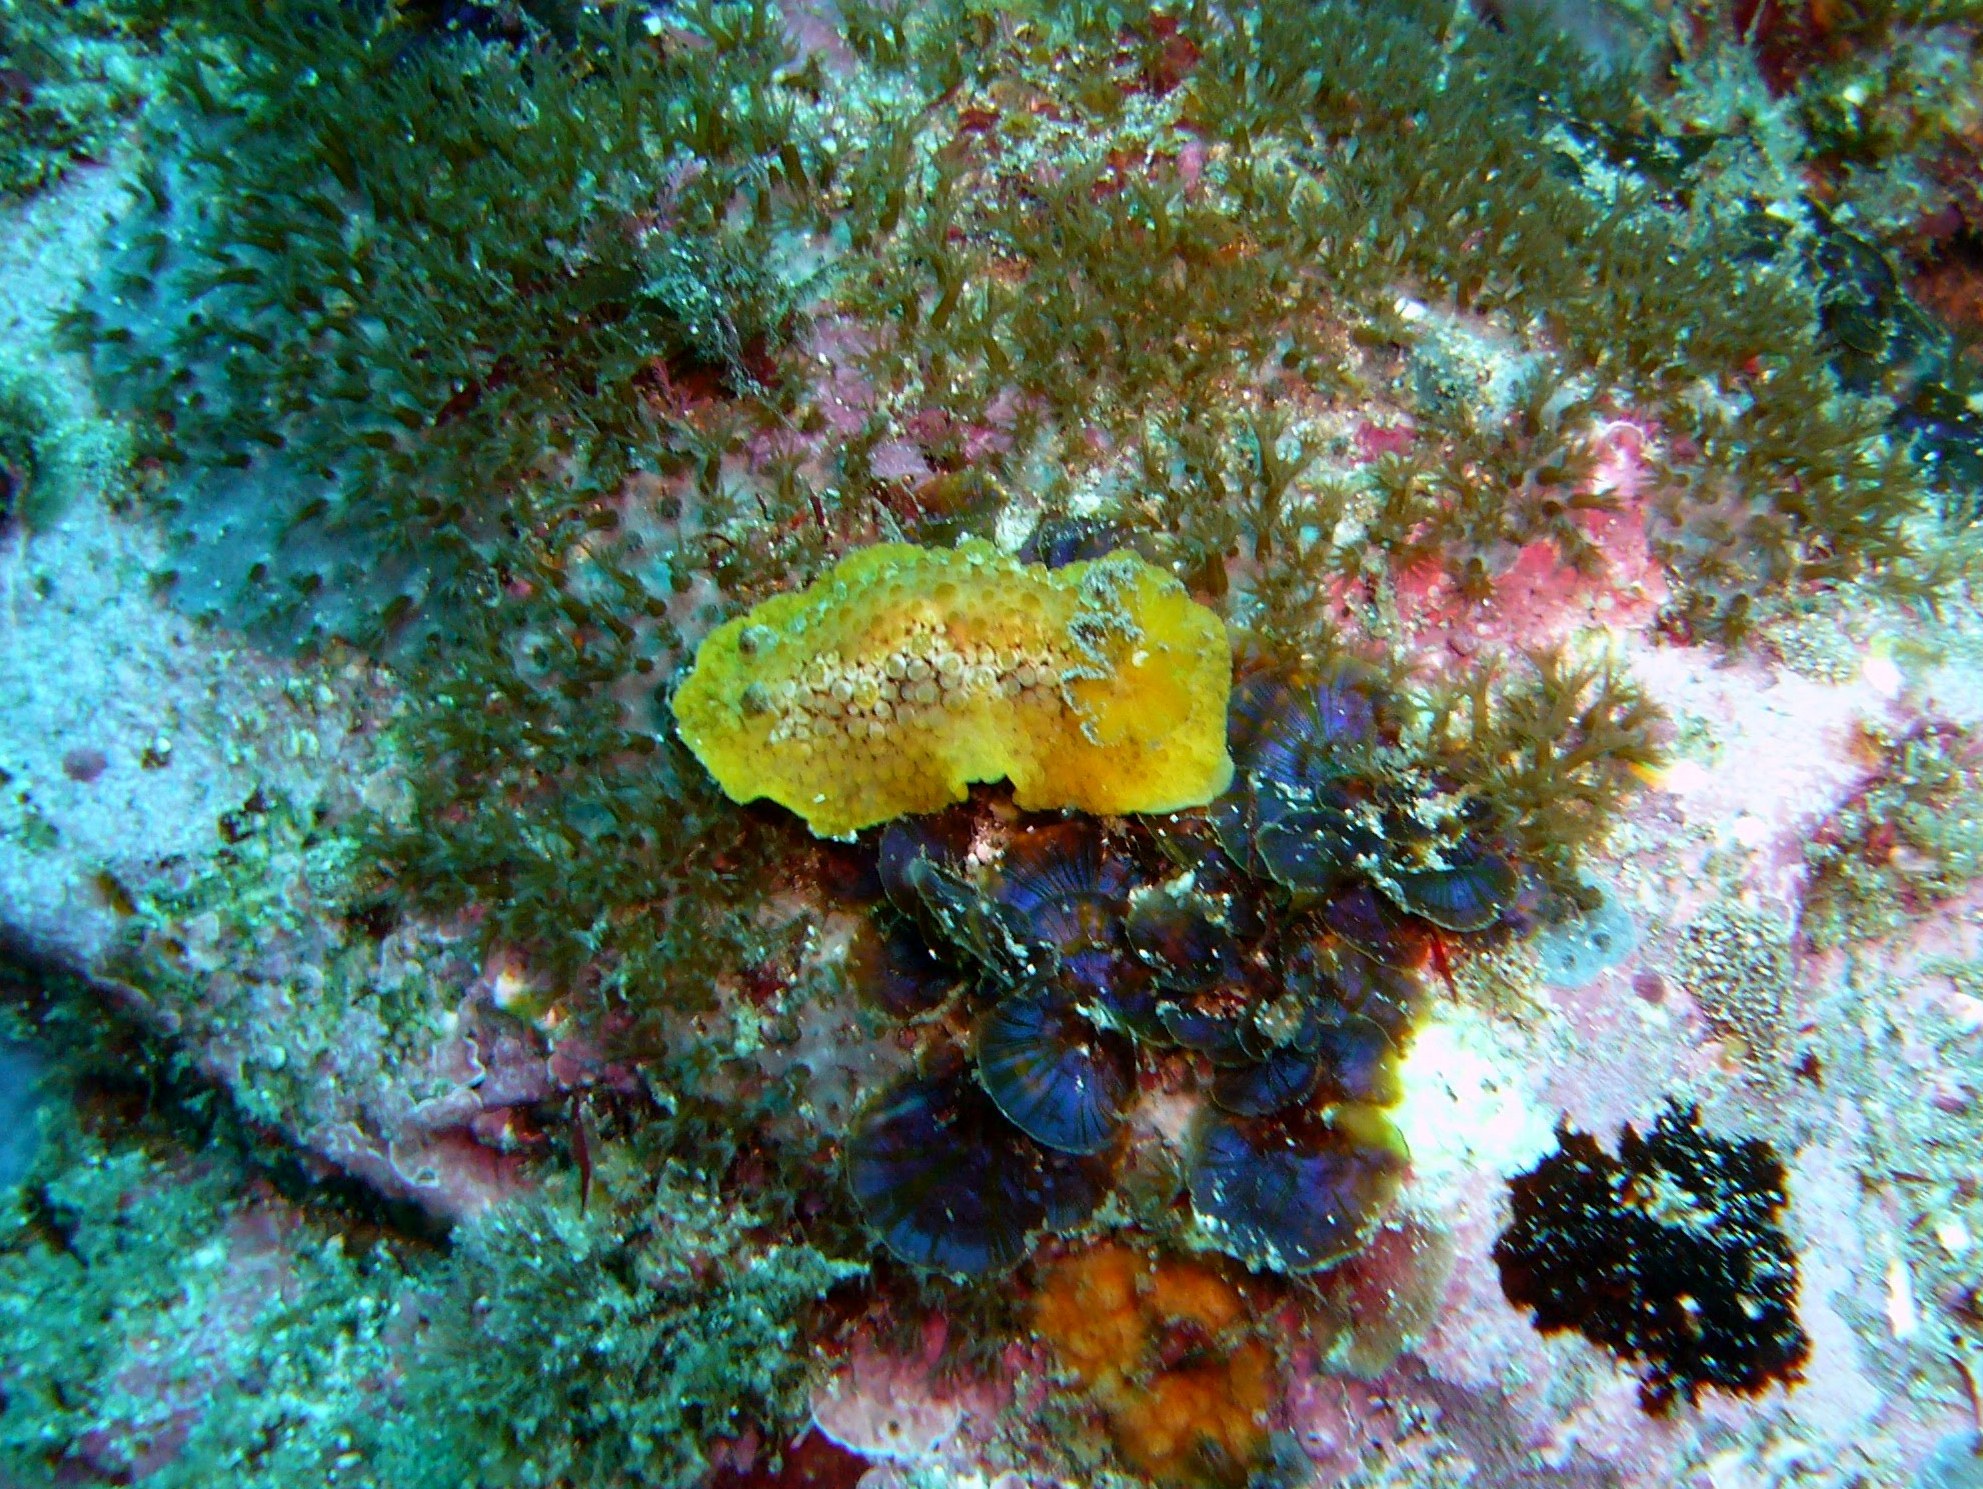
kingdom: Animalia
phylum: Mollusca
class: Gastropoda
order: Nudibranchia
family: Discodorididae
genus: Carminodoris
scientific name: Carminodoris nodulosa
